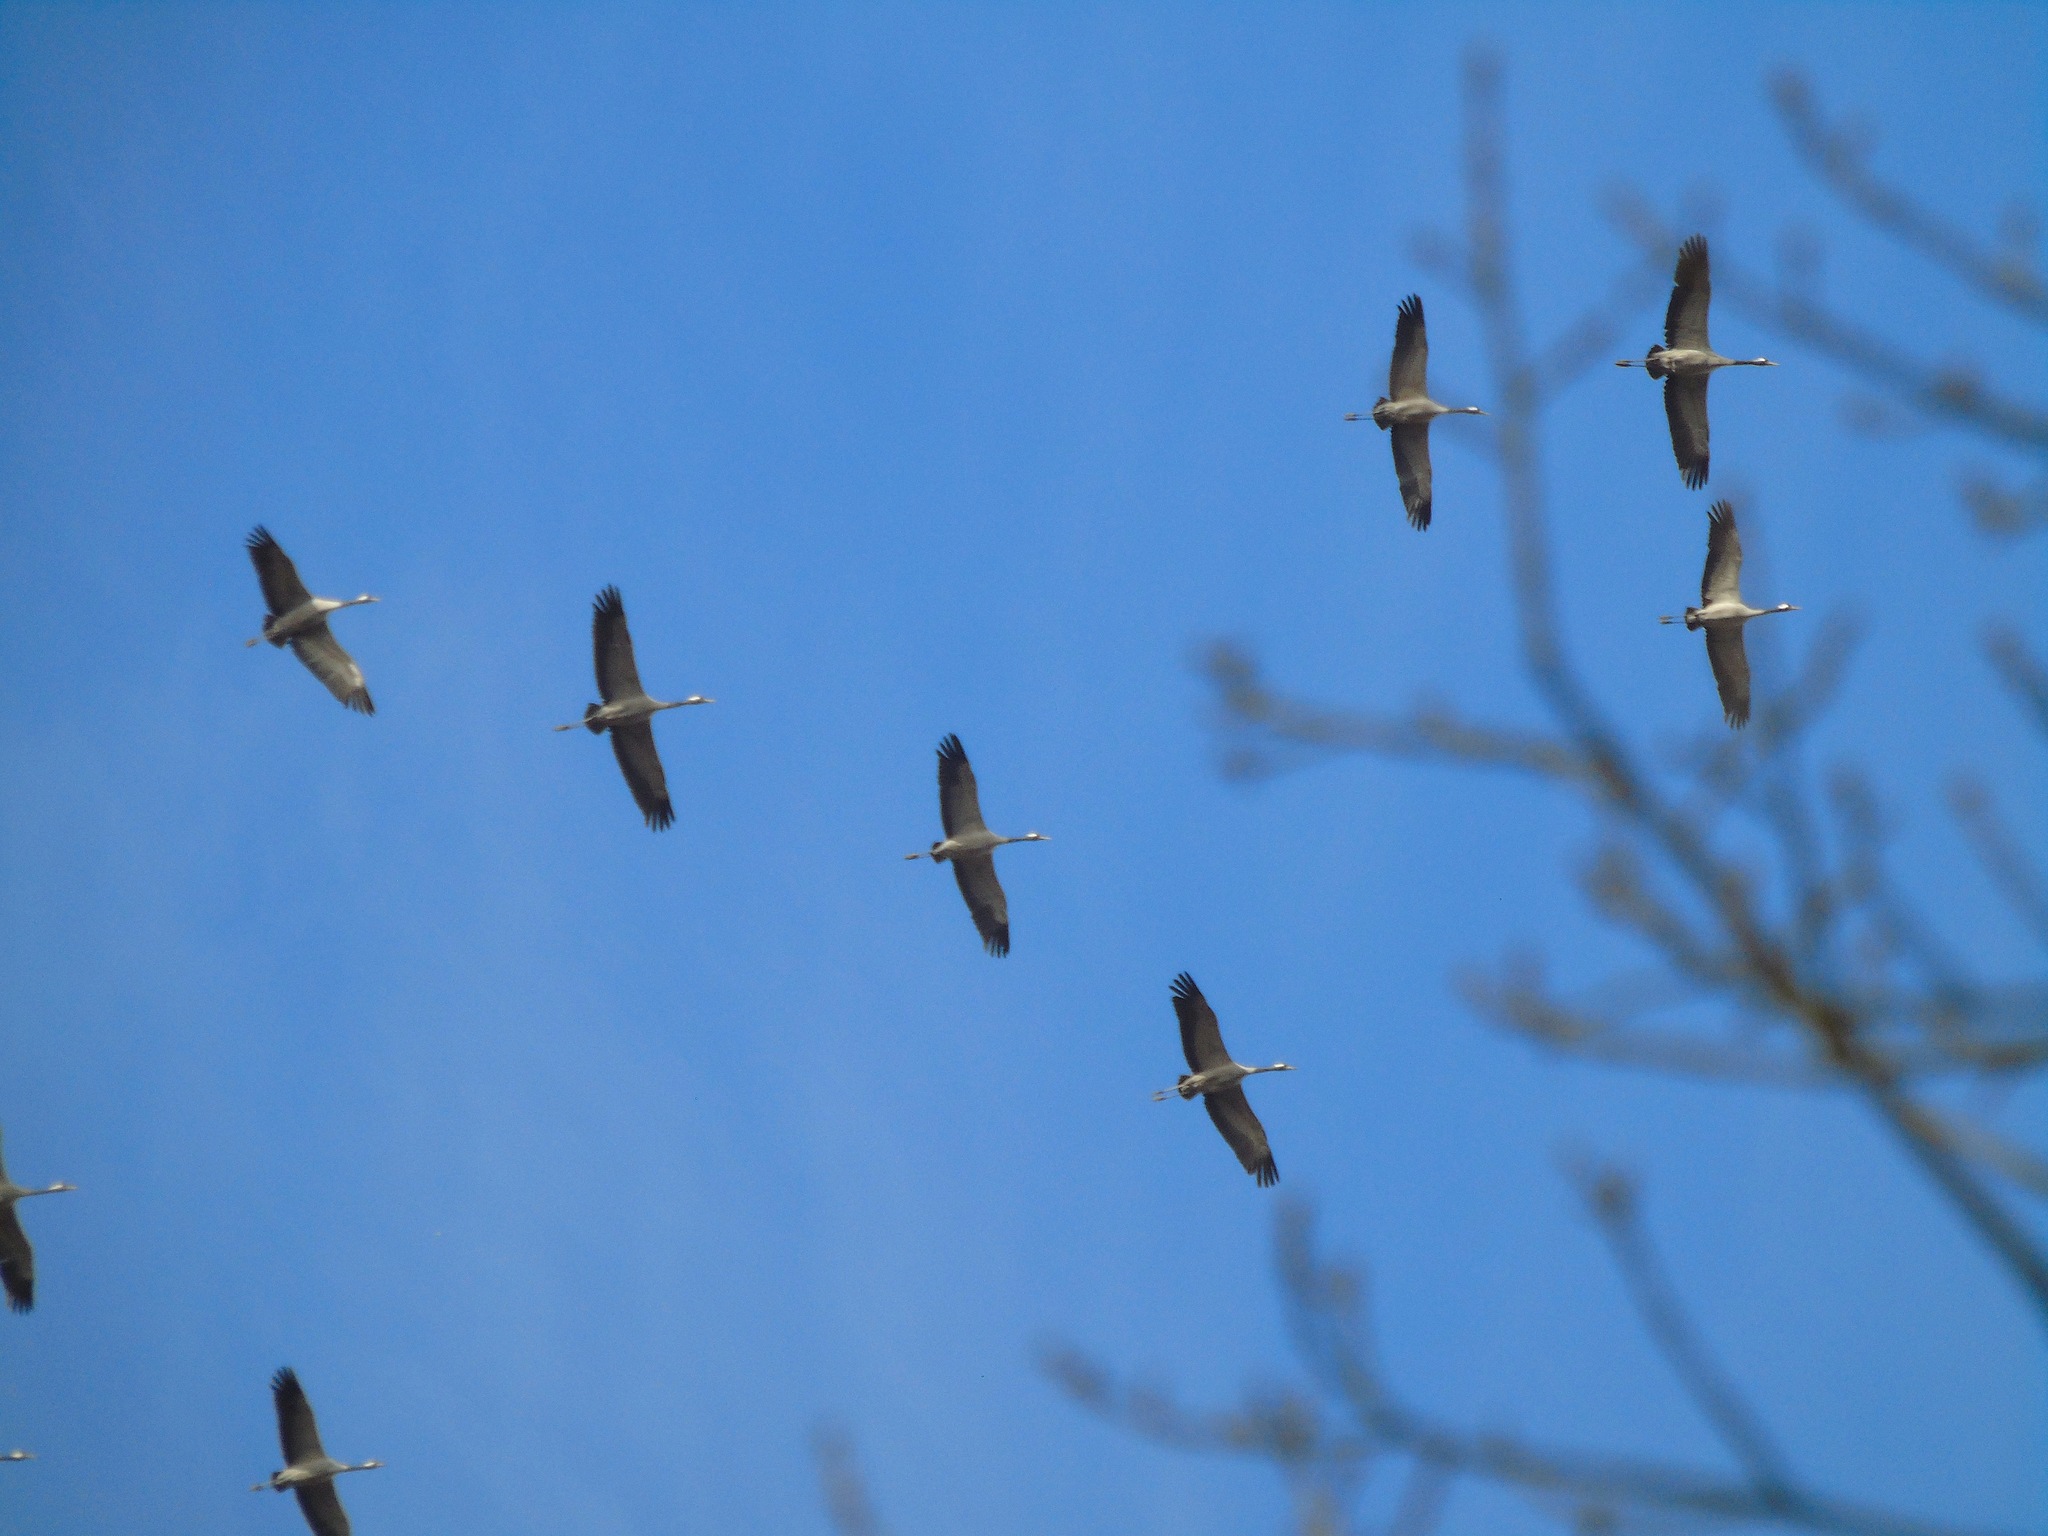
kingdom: Animalia
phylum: Chordata
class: Aves
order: Gruiformes
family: Gruidae
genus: Grus
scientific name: Grus grus
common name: Common crane
